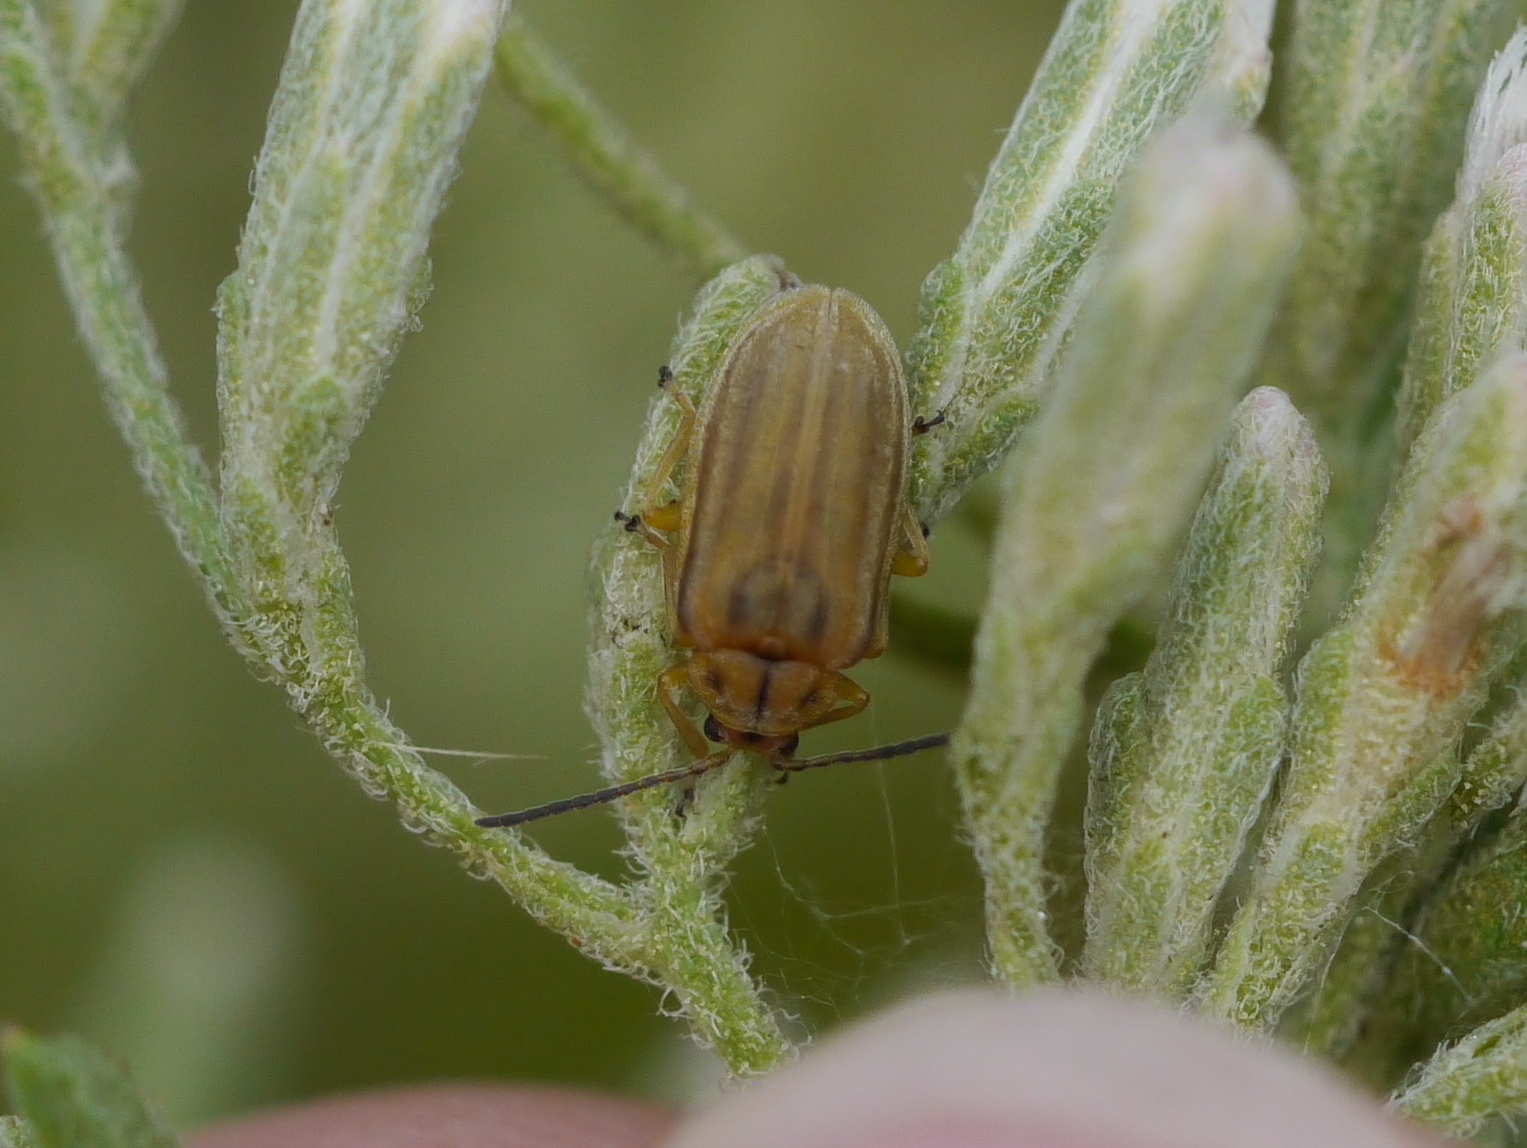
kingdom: Animalia
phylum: Arthropoda
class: Insecta
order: Coleoptera
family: Chrysomelidae
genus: Ophraella
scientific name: Ophraella notata
